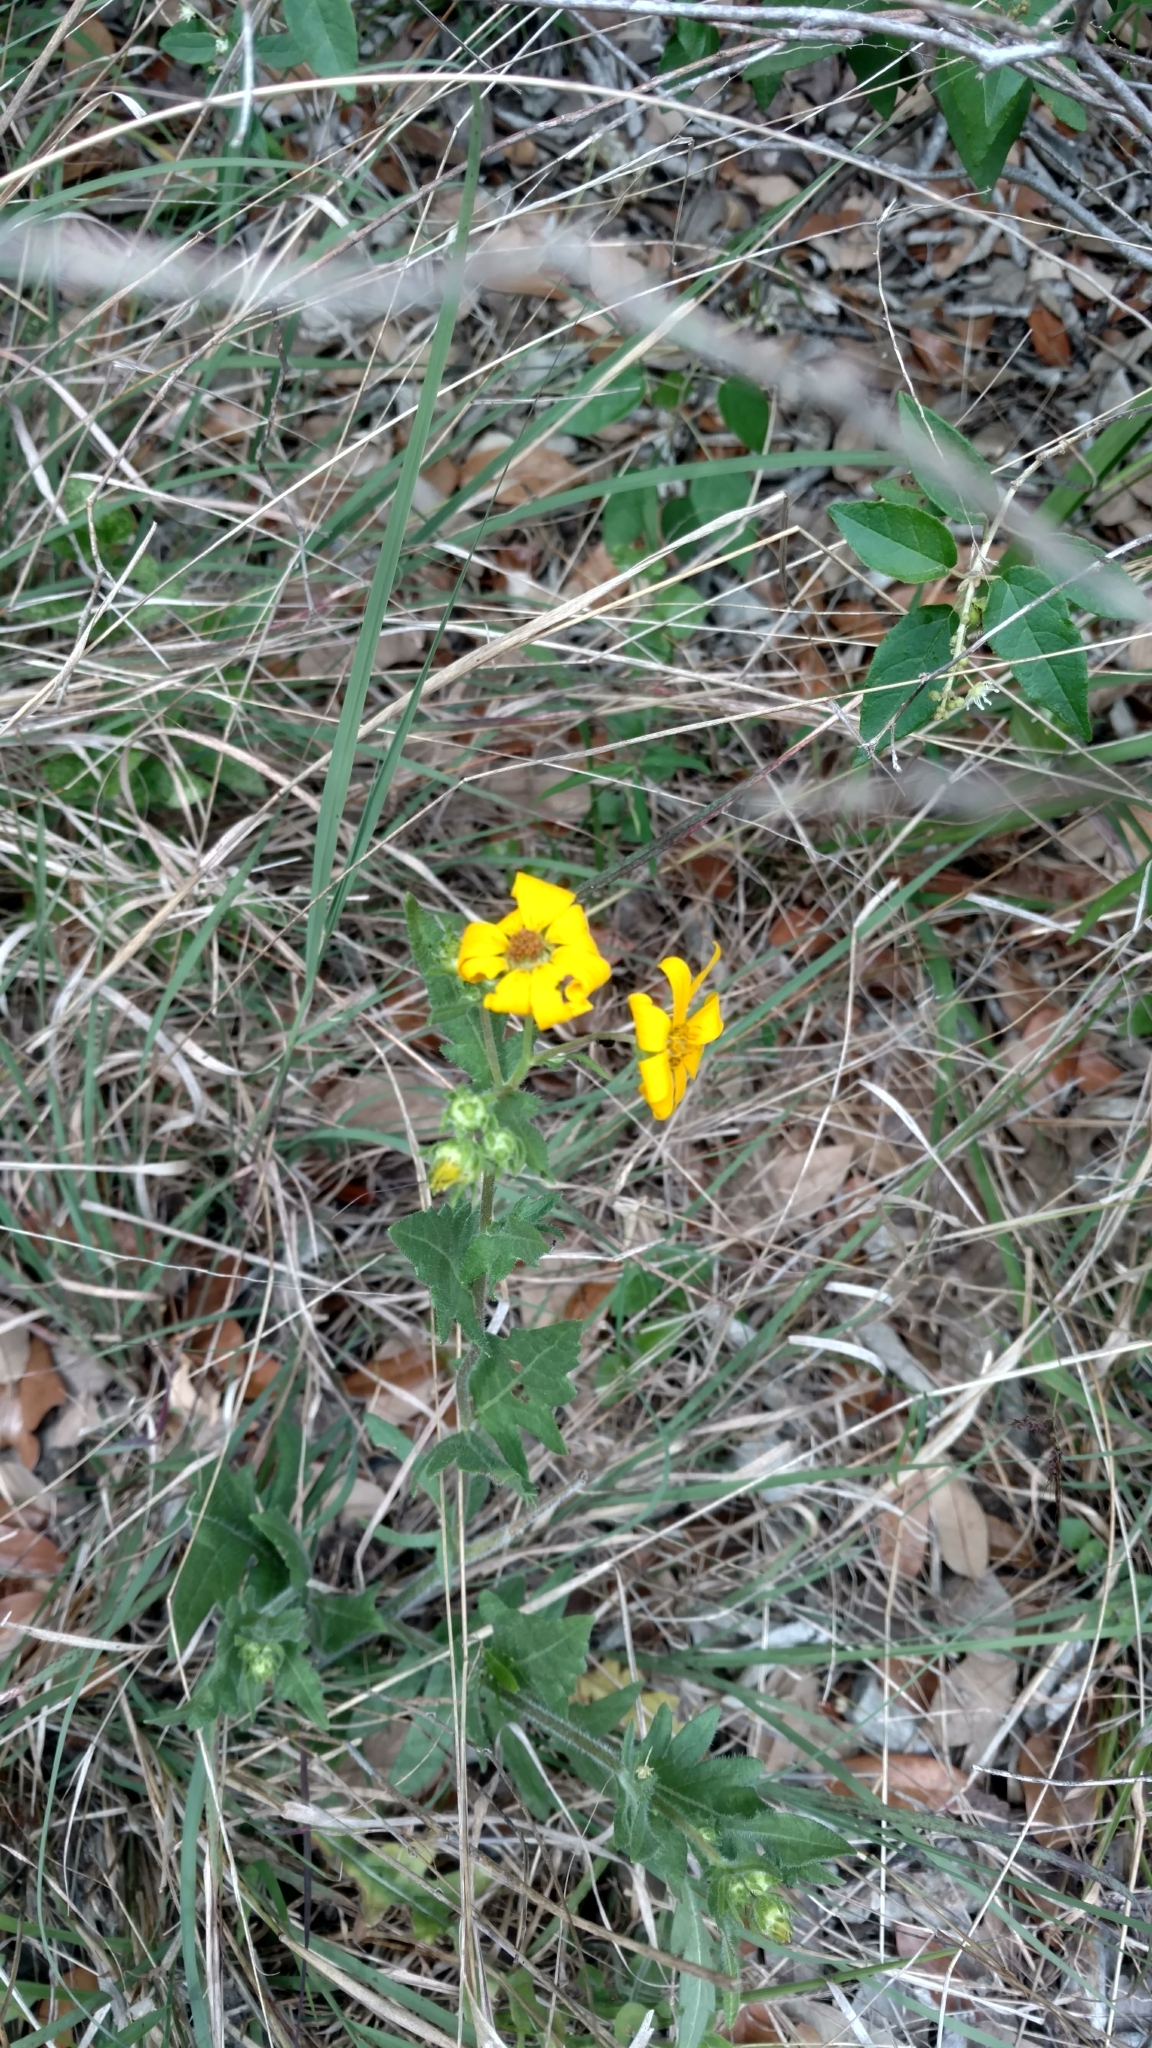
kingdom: Plantae
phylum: Tracheophyta
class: Magnoliopsida
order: Asterales
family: Asteraceae
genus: Engelmannia
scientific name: Engelmannia peristenia
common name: Engelmann's daisy
